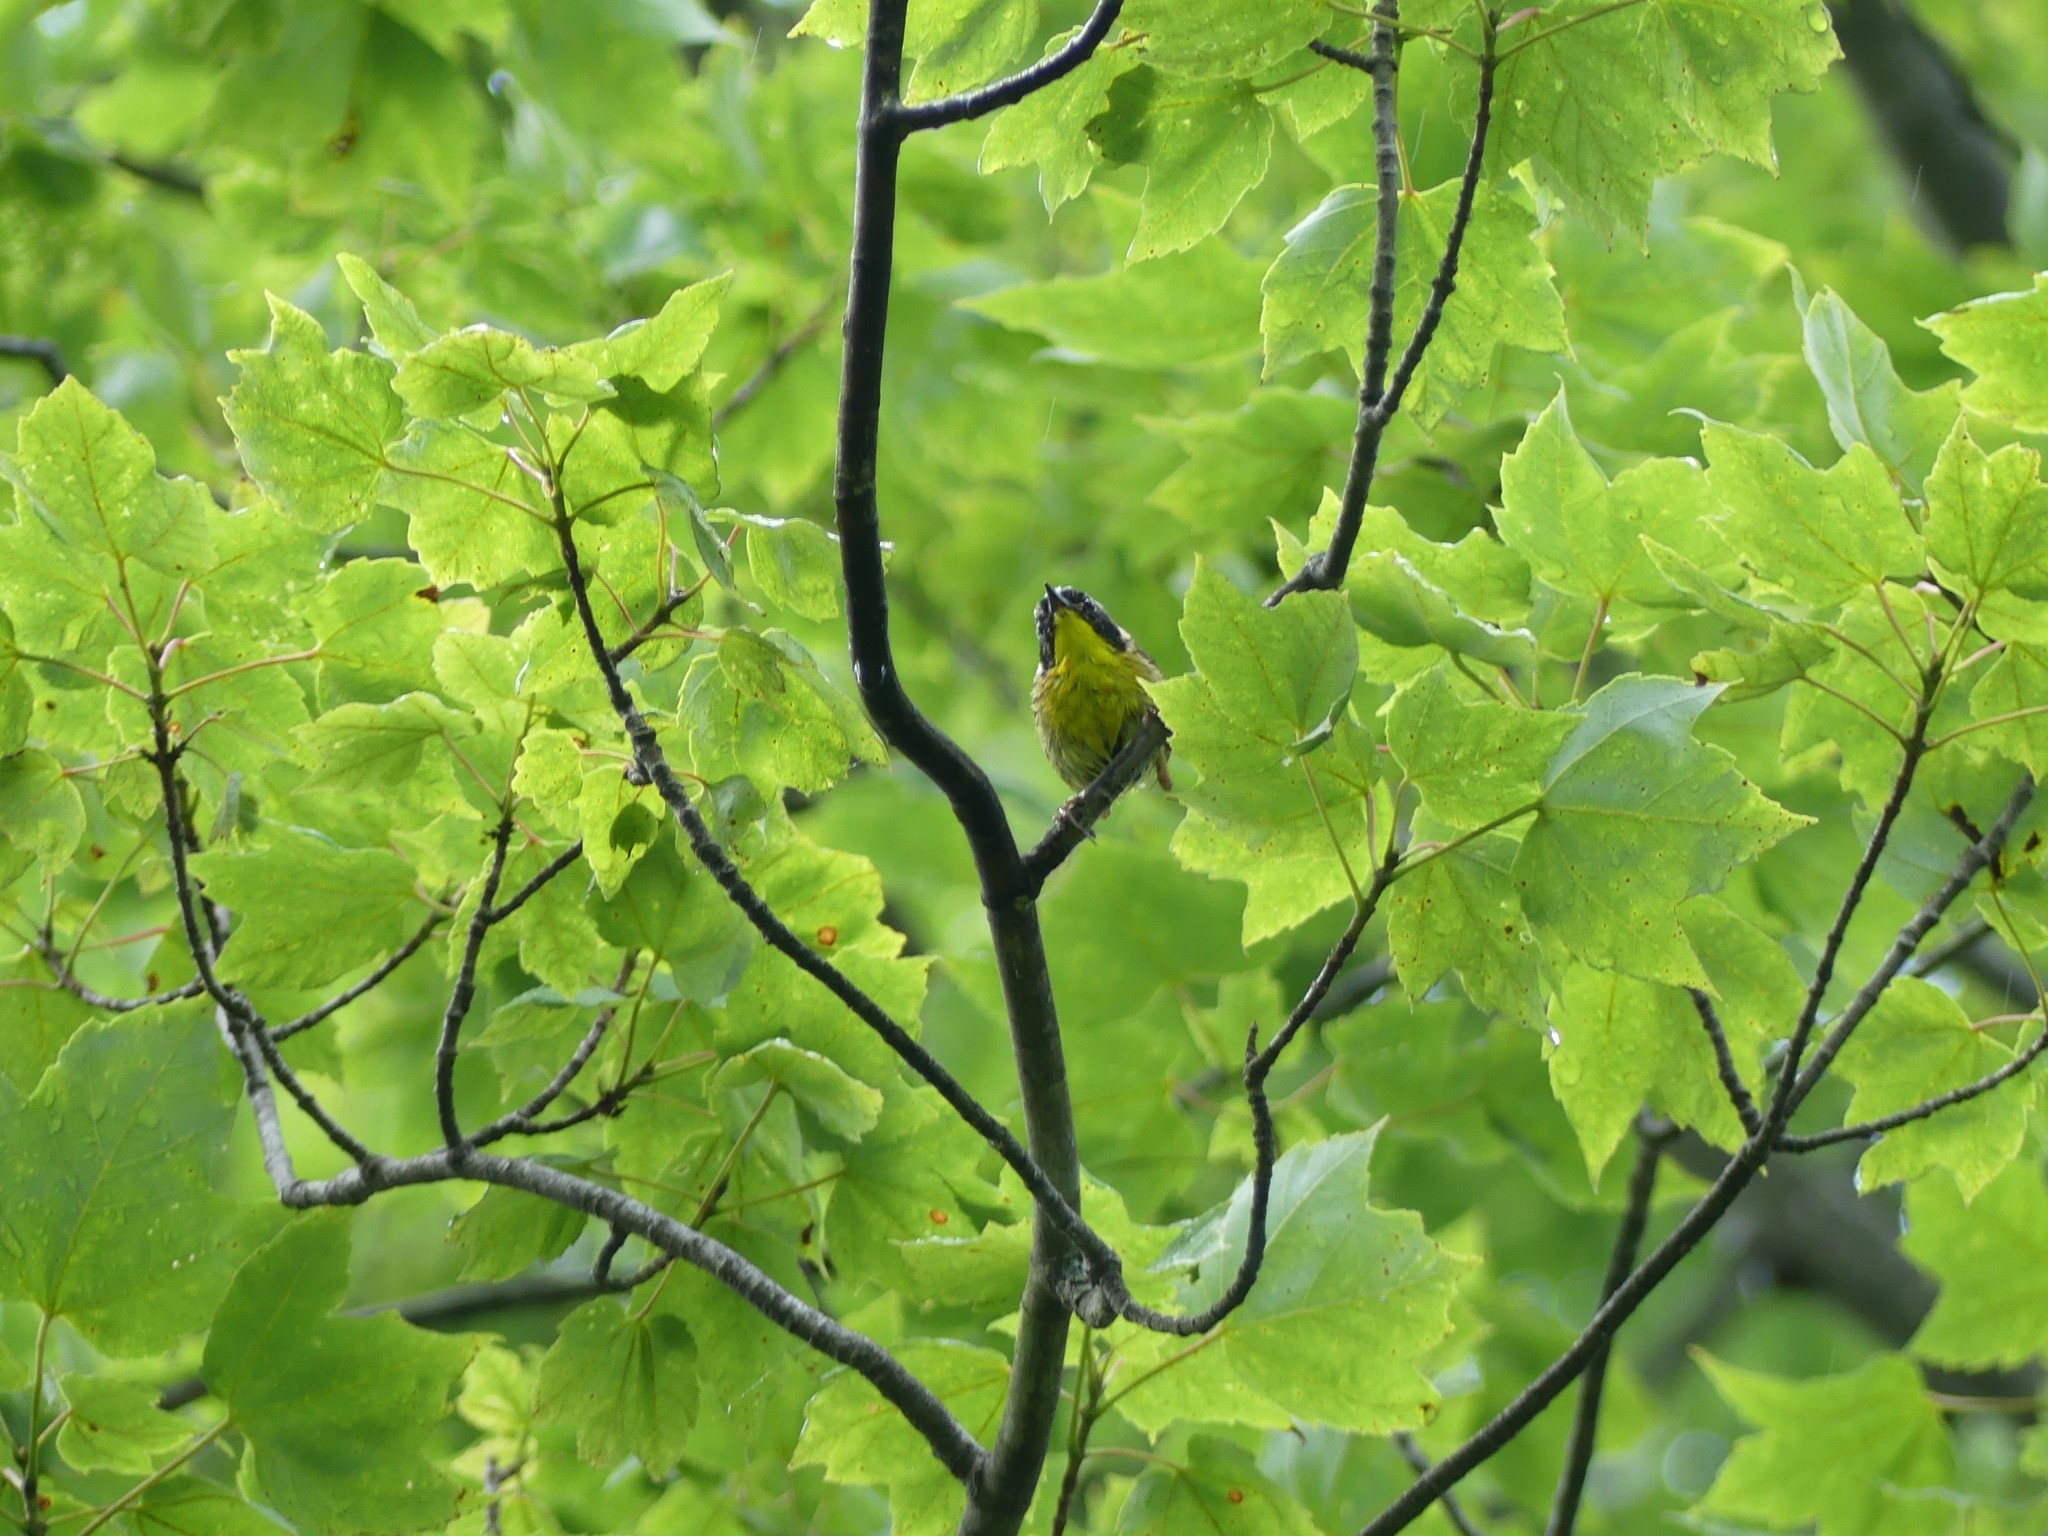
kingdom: Animalia
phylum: Chordata
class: Aves
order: Passeriformes
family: Parulidae
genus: Geothlypis
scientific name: Geothlypis trichas
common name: Common yellowthroat
